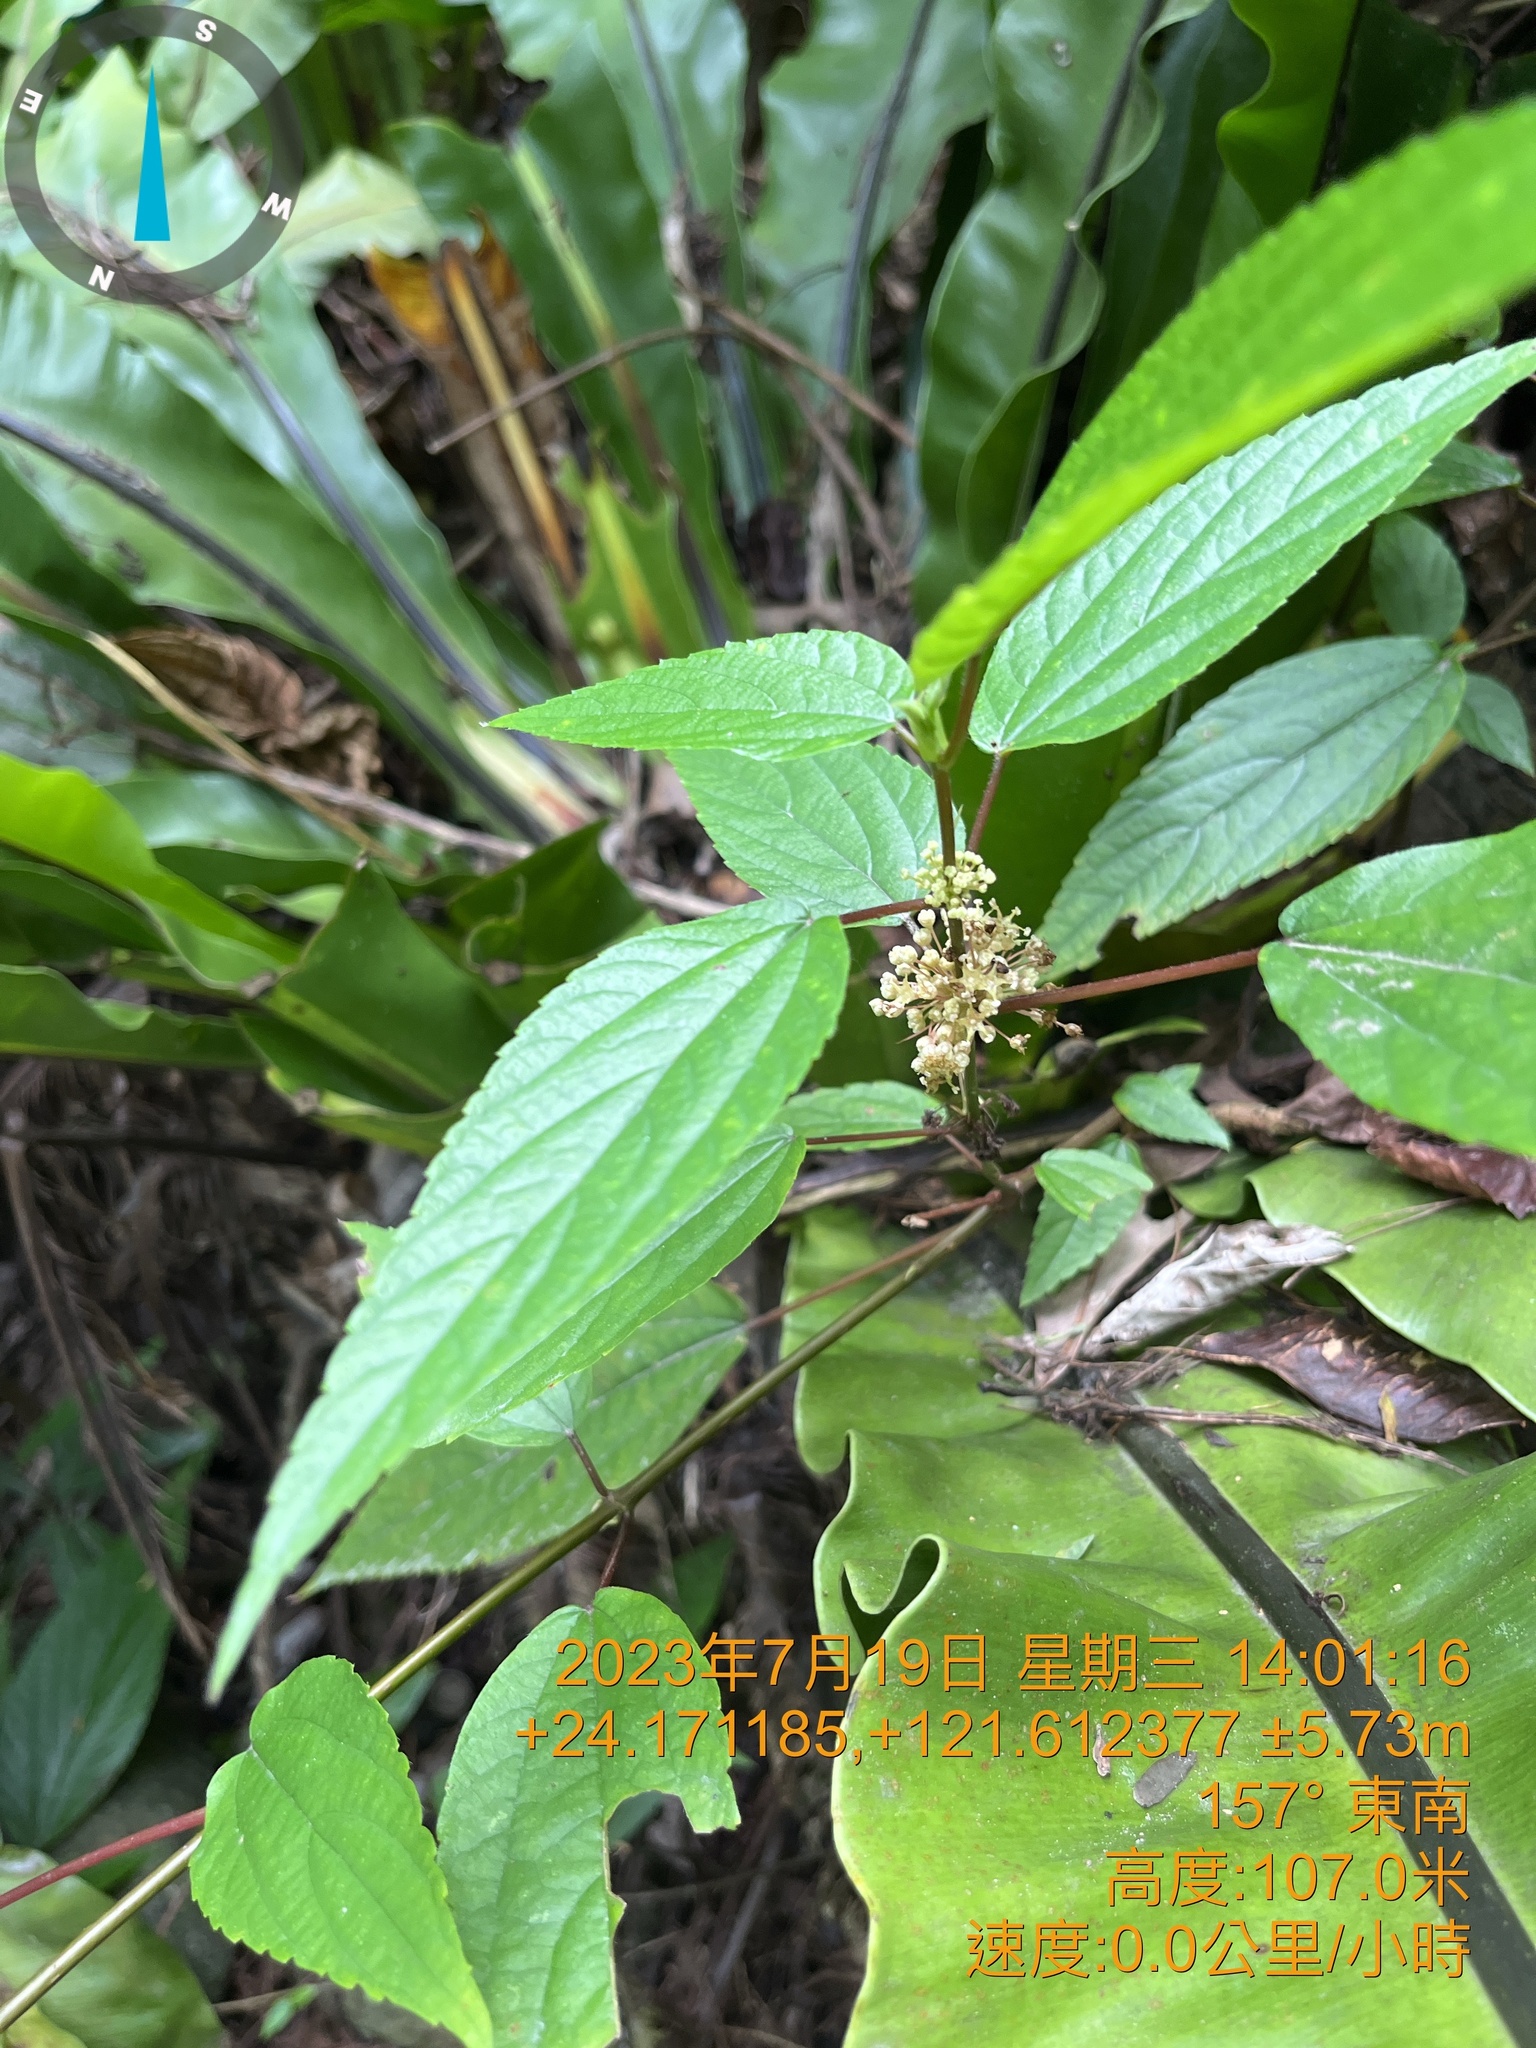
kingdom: Plantae
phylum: Tracheophyta
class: Magnoliopsida
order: Rosales
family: Urticaceae
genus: Boehmeria
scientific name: Boehmeria zollingeriana
